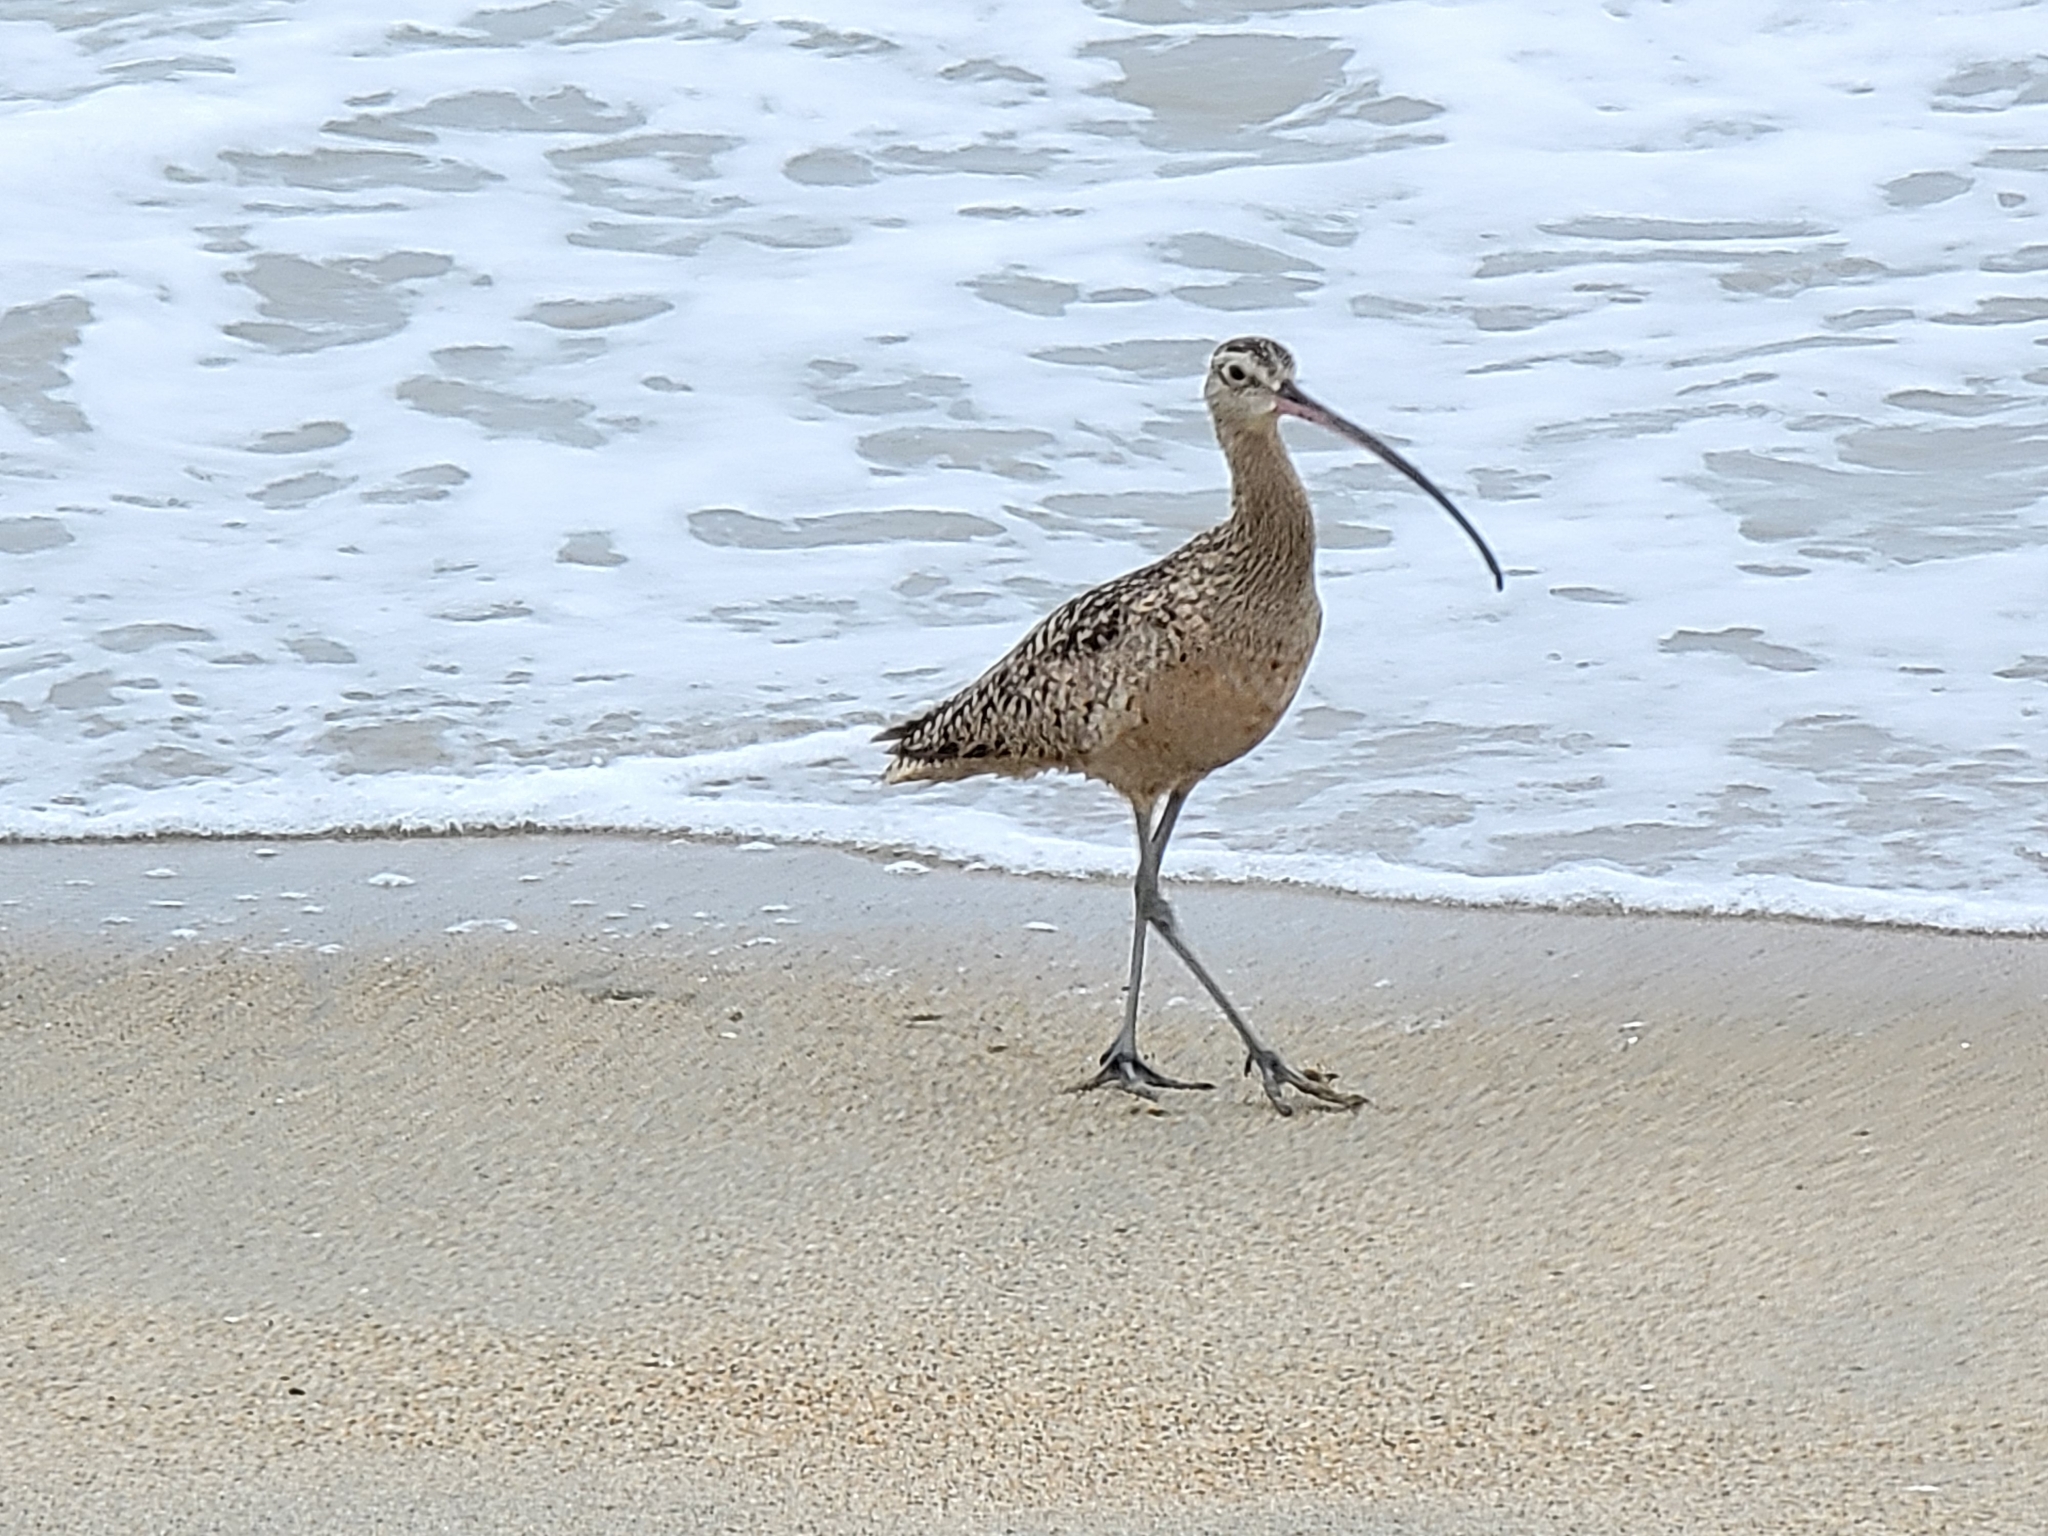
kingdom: Animalia
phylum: Chordata
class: Aves
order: Charadriiformes
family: Scolopacidae
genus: Numenius
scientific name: Numenius americanus
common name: Long-billed curlew
